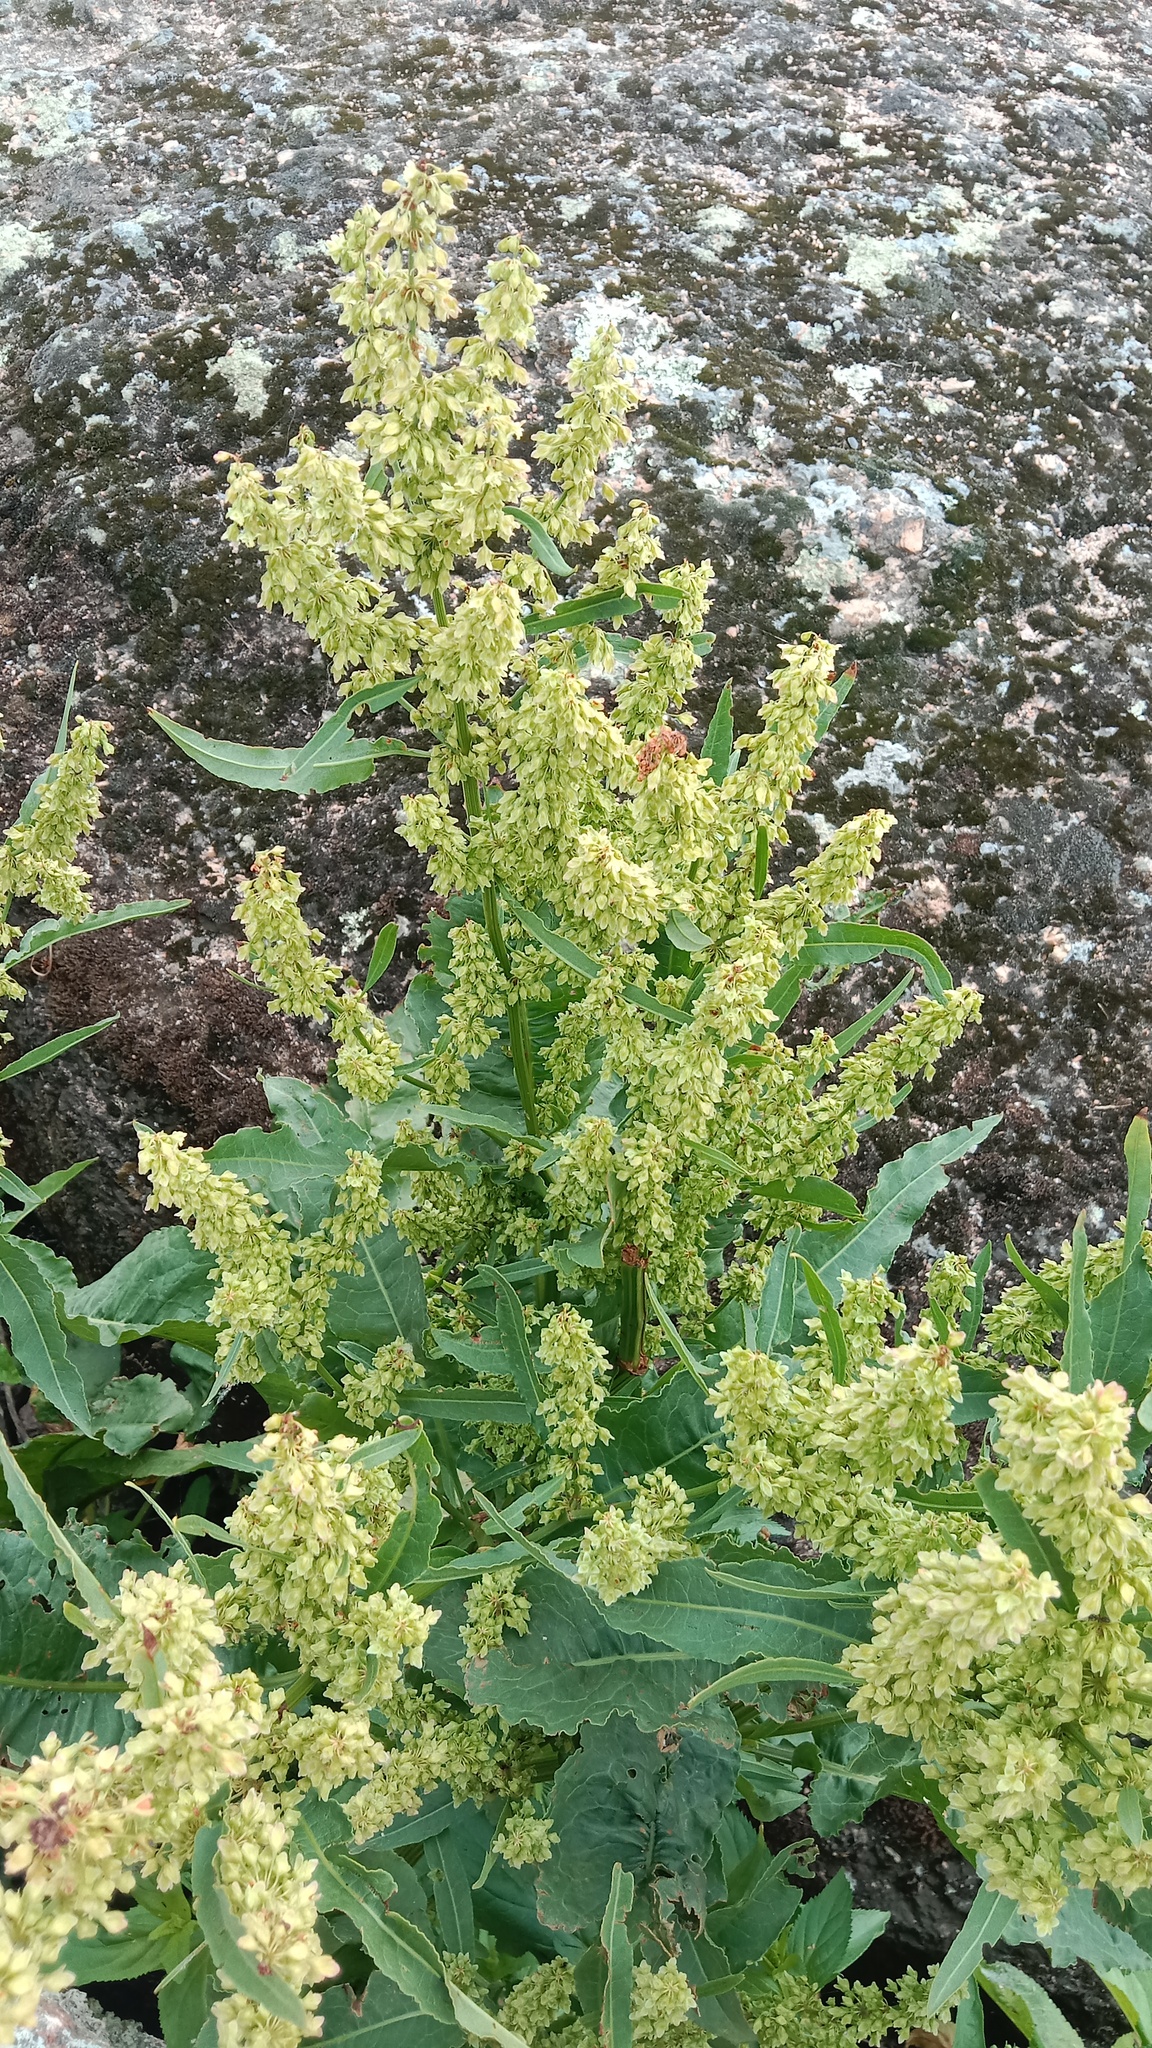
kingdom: Plantae
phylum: Tracheophyta
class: Magnoliopsida
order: Caryophyllales
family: Polygonaceae
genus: Rumex
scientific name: Rumex hydrolapathum
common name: Water dock
